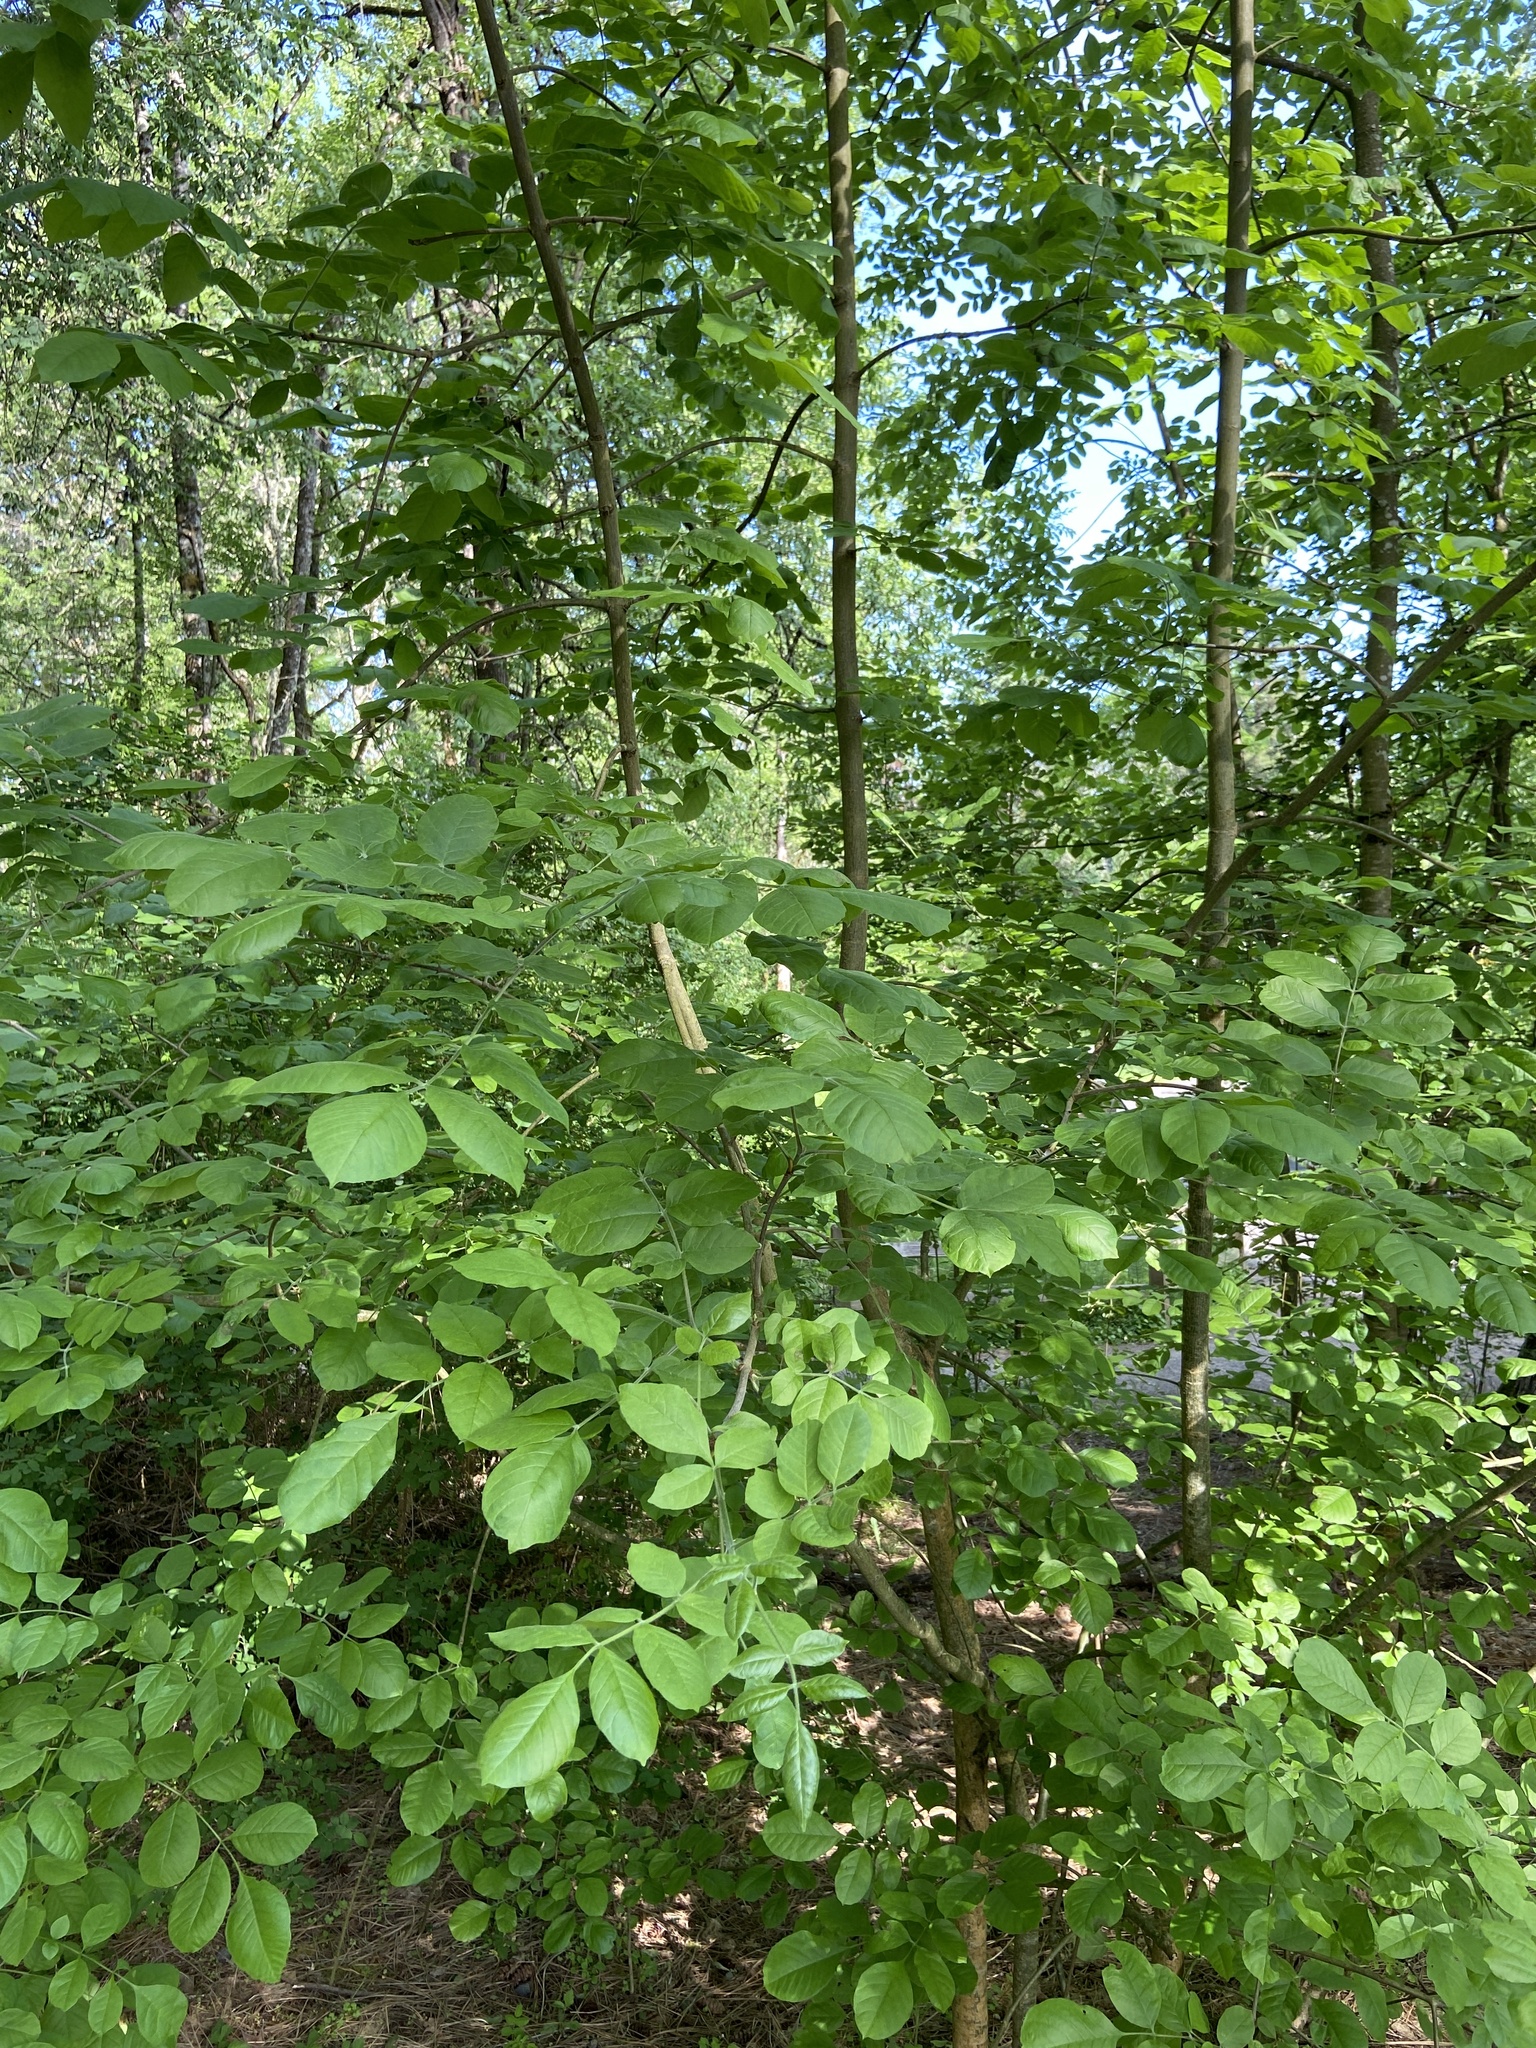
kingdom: Plantae
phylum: Tracheophyta
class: Magnoliopsida
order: Lamiales
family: Oleaceae
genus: Fraxinus
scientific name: Fraxinus latifolia
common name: Oregon ash
